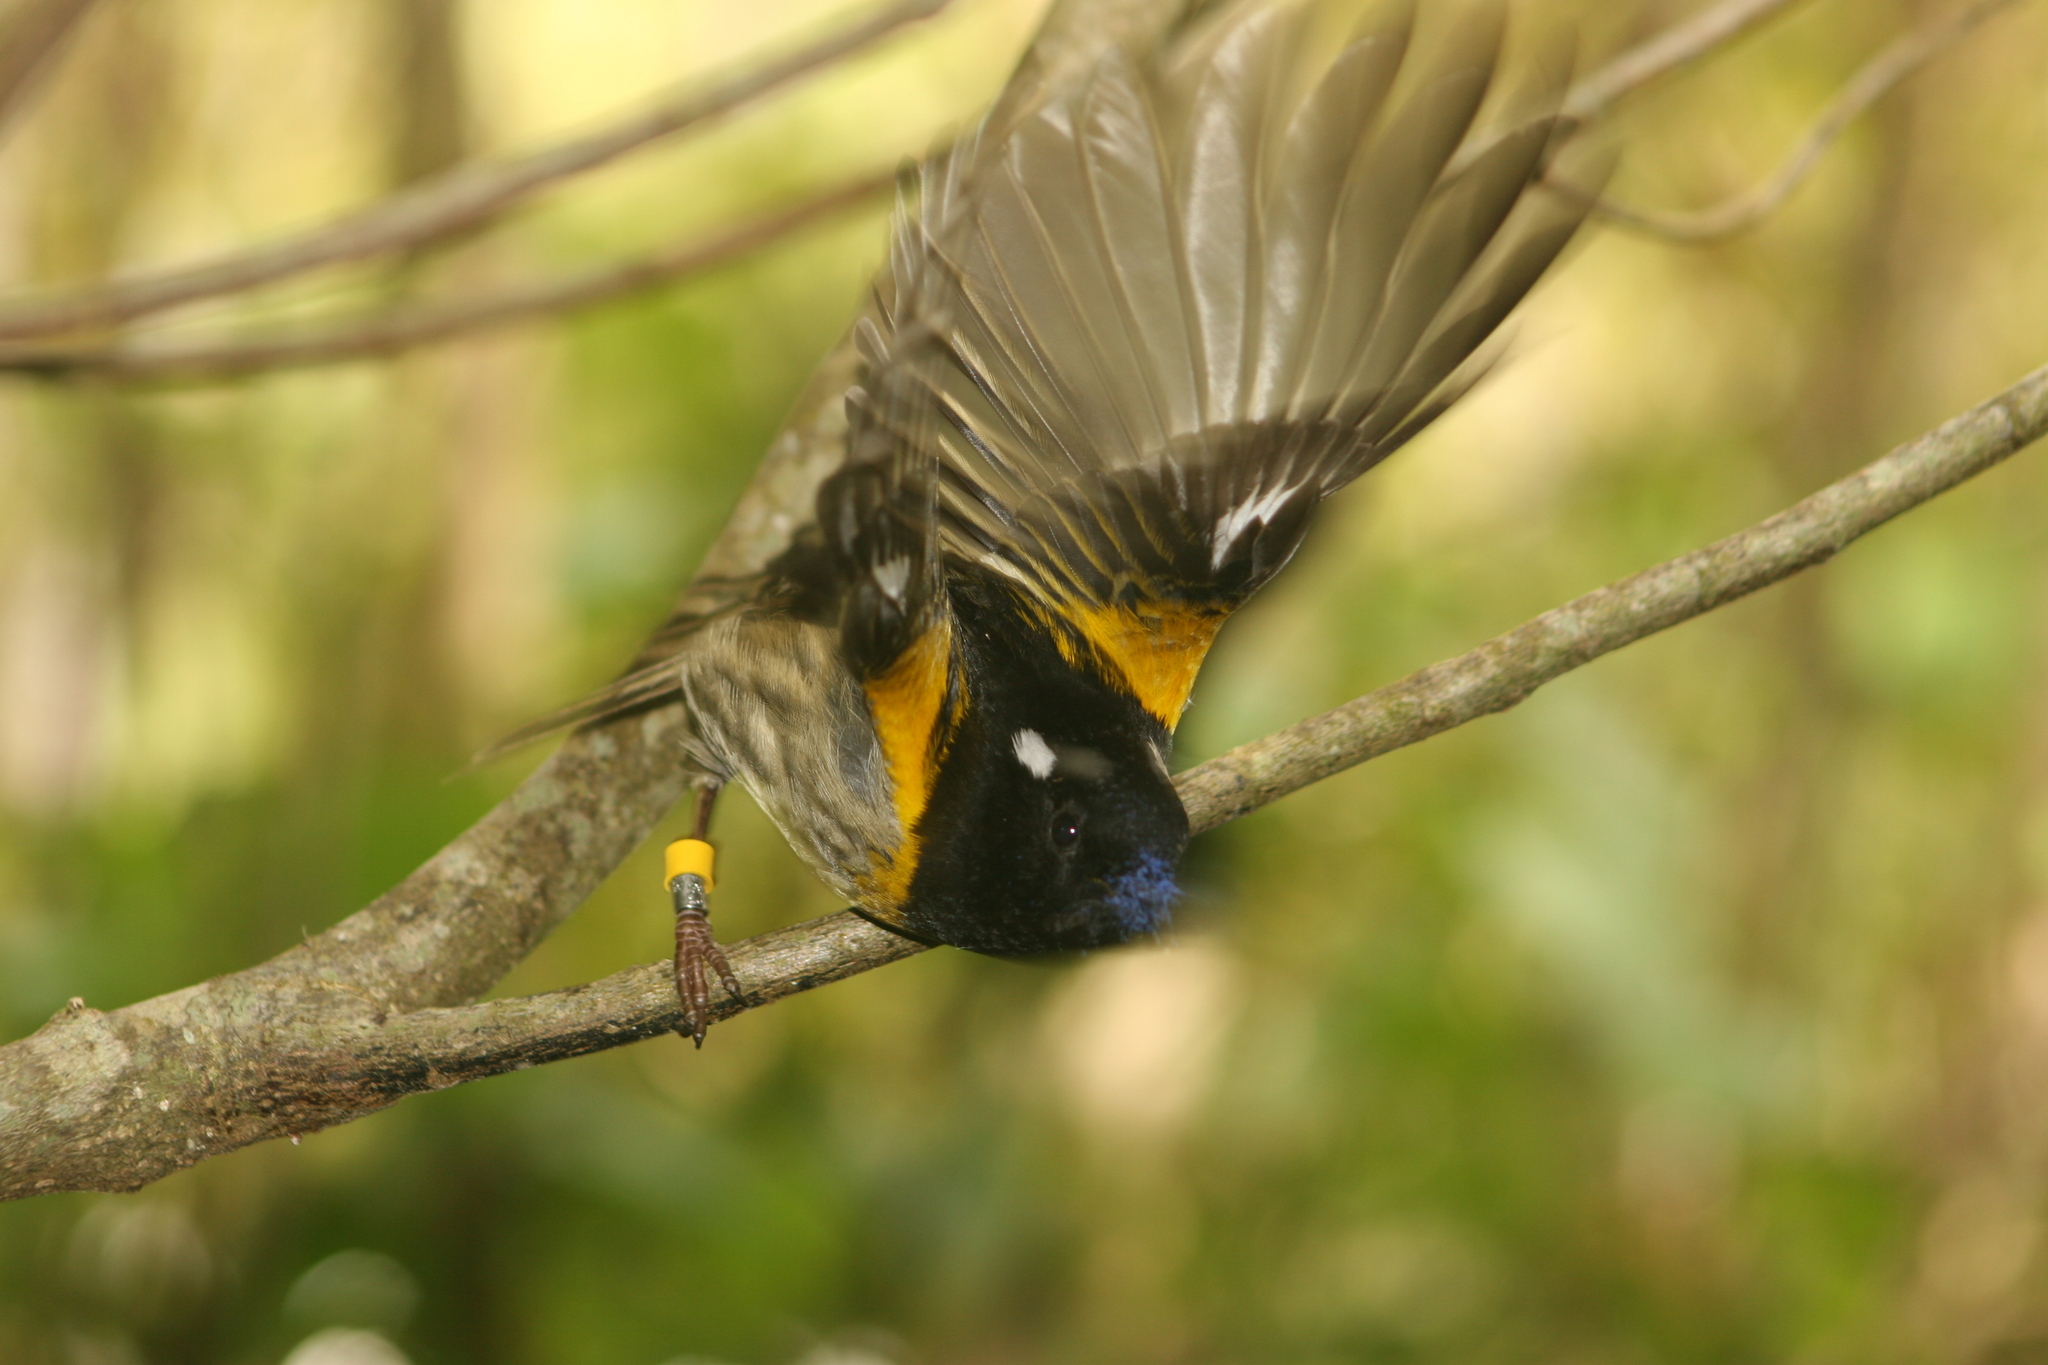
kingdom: Animalia
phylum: Chordata
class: Aves
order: Passeriformes
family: Notiomystidae
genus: Notiomystis
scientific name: Notiomystis cincta
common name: Stitchbird
